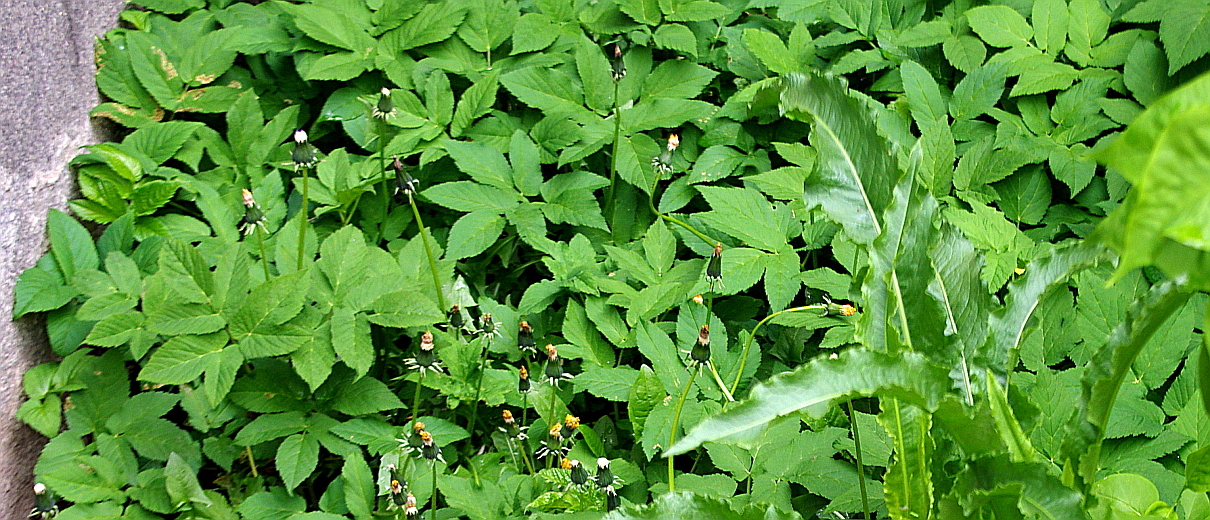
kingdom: Plantae
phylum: Tracheophyta
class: Magnoliopsida
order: Apiales
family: Apiaceae
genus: Aegopodium
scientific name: Aegopodium podagraria
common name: Ground-elder
